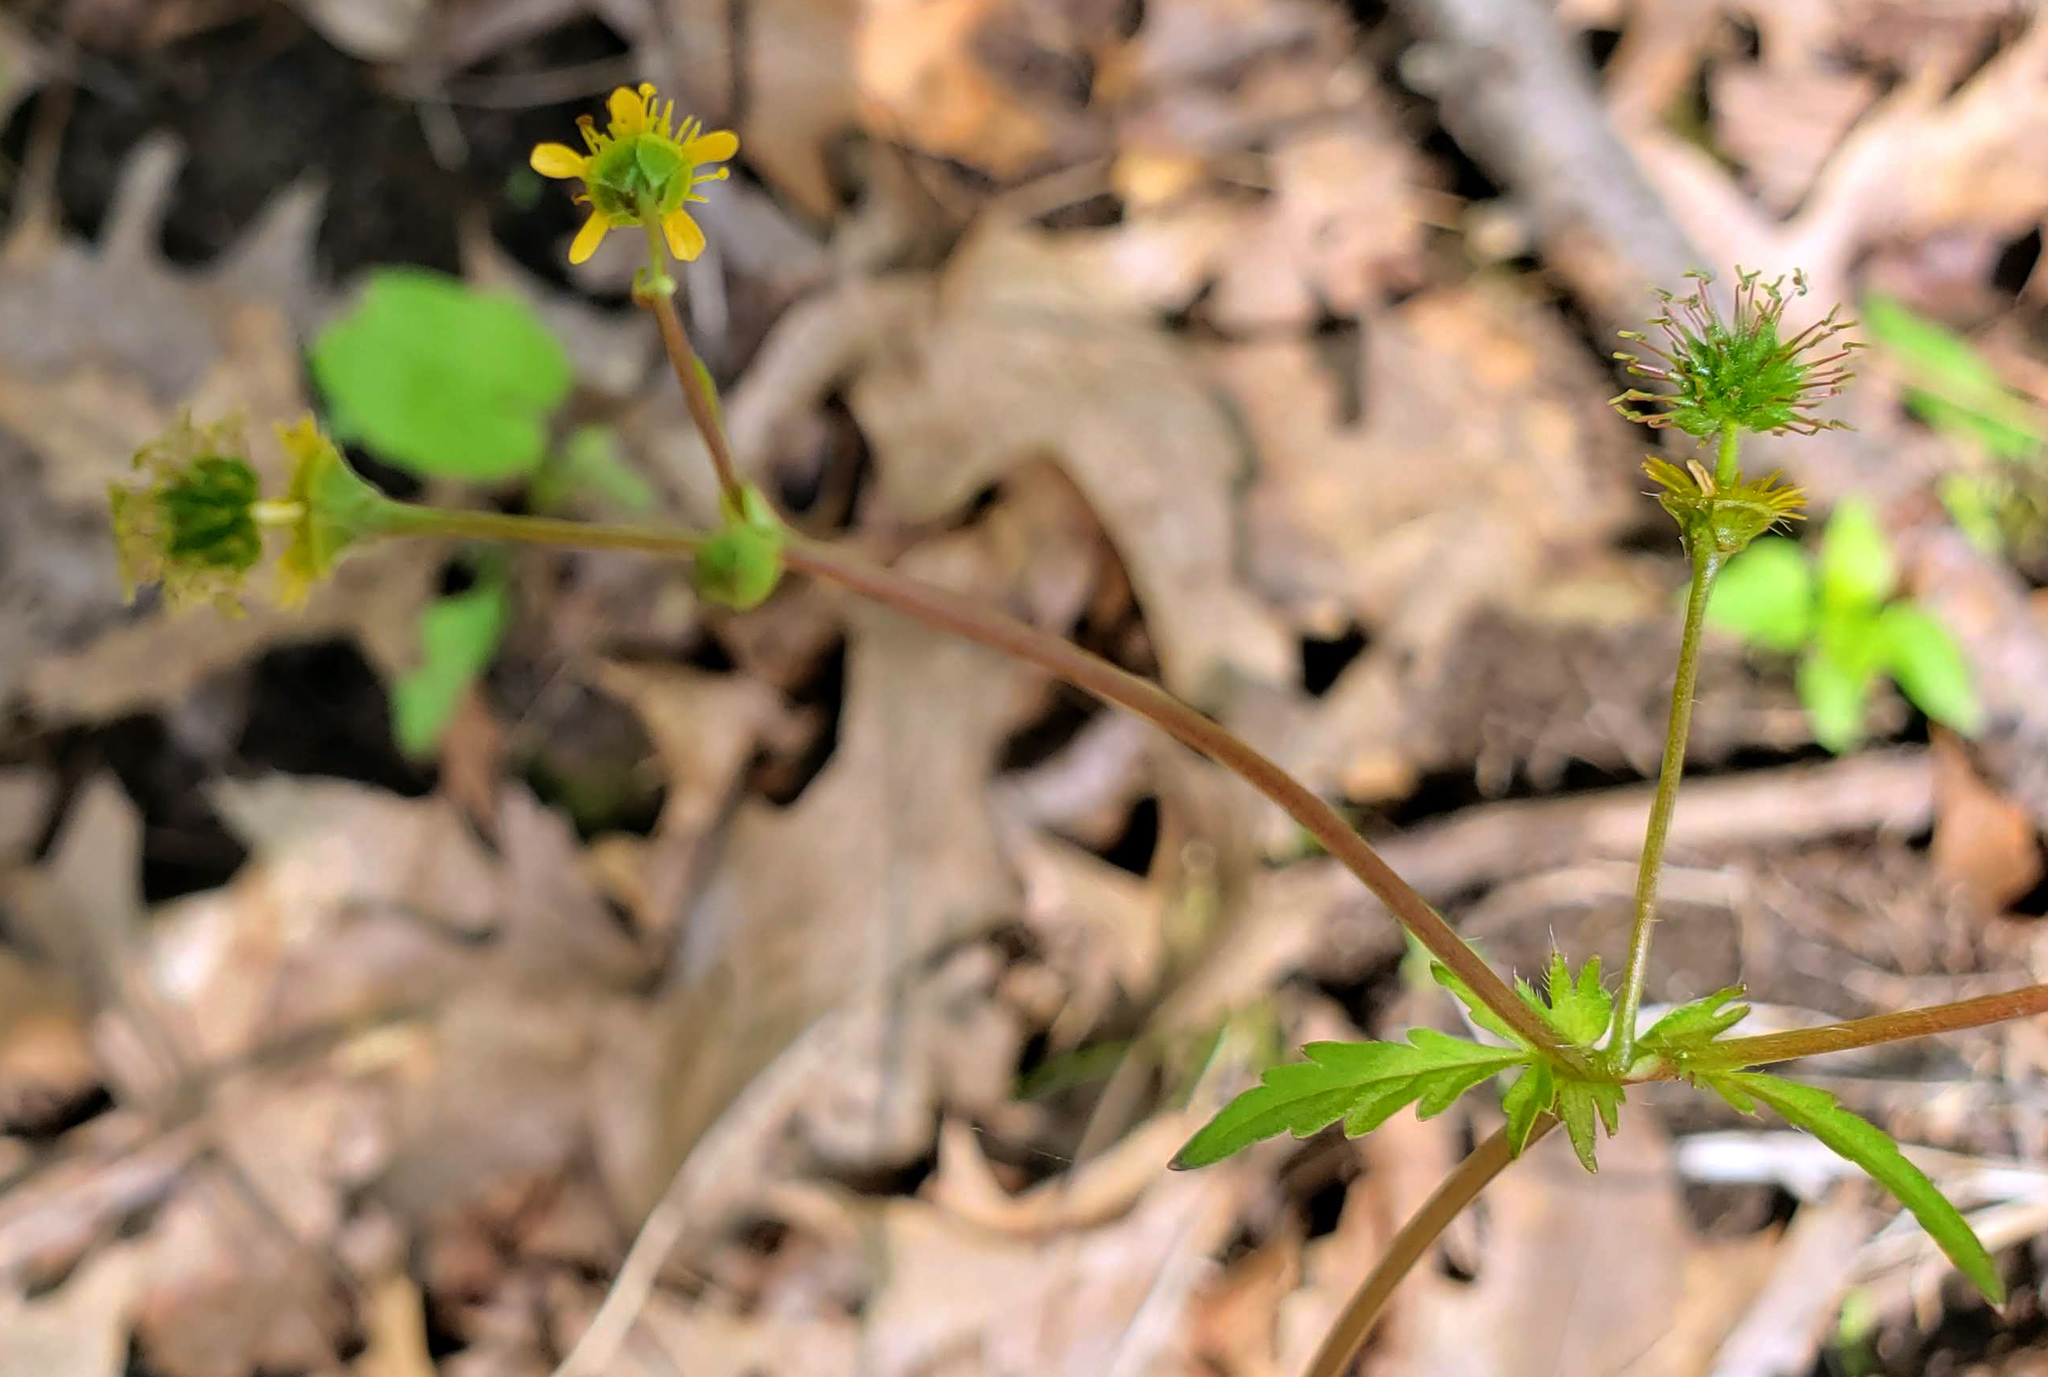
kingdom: Plantae
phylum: Tracheophyta
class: Magnoliopsida
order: Rosales
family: Rosaceae
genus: Geum
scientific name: Geum vernum
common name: Spring avens
